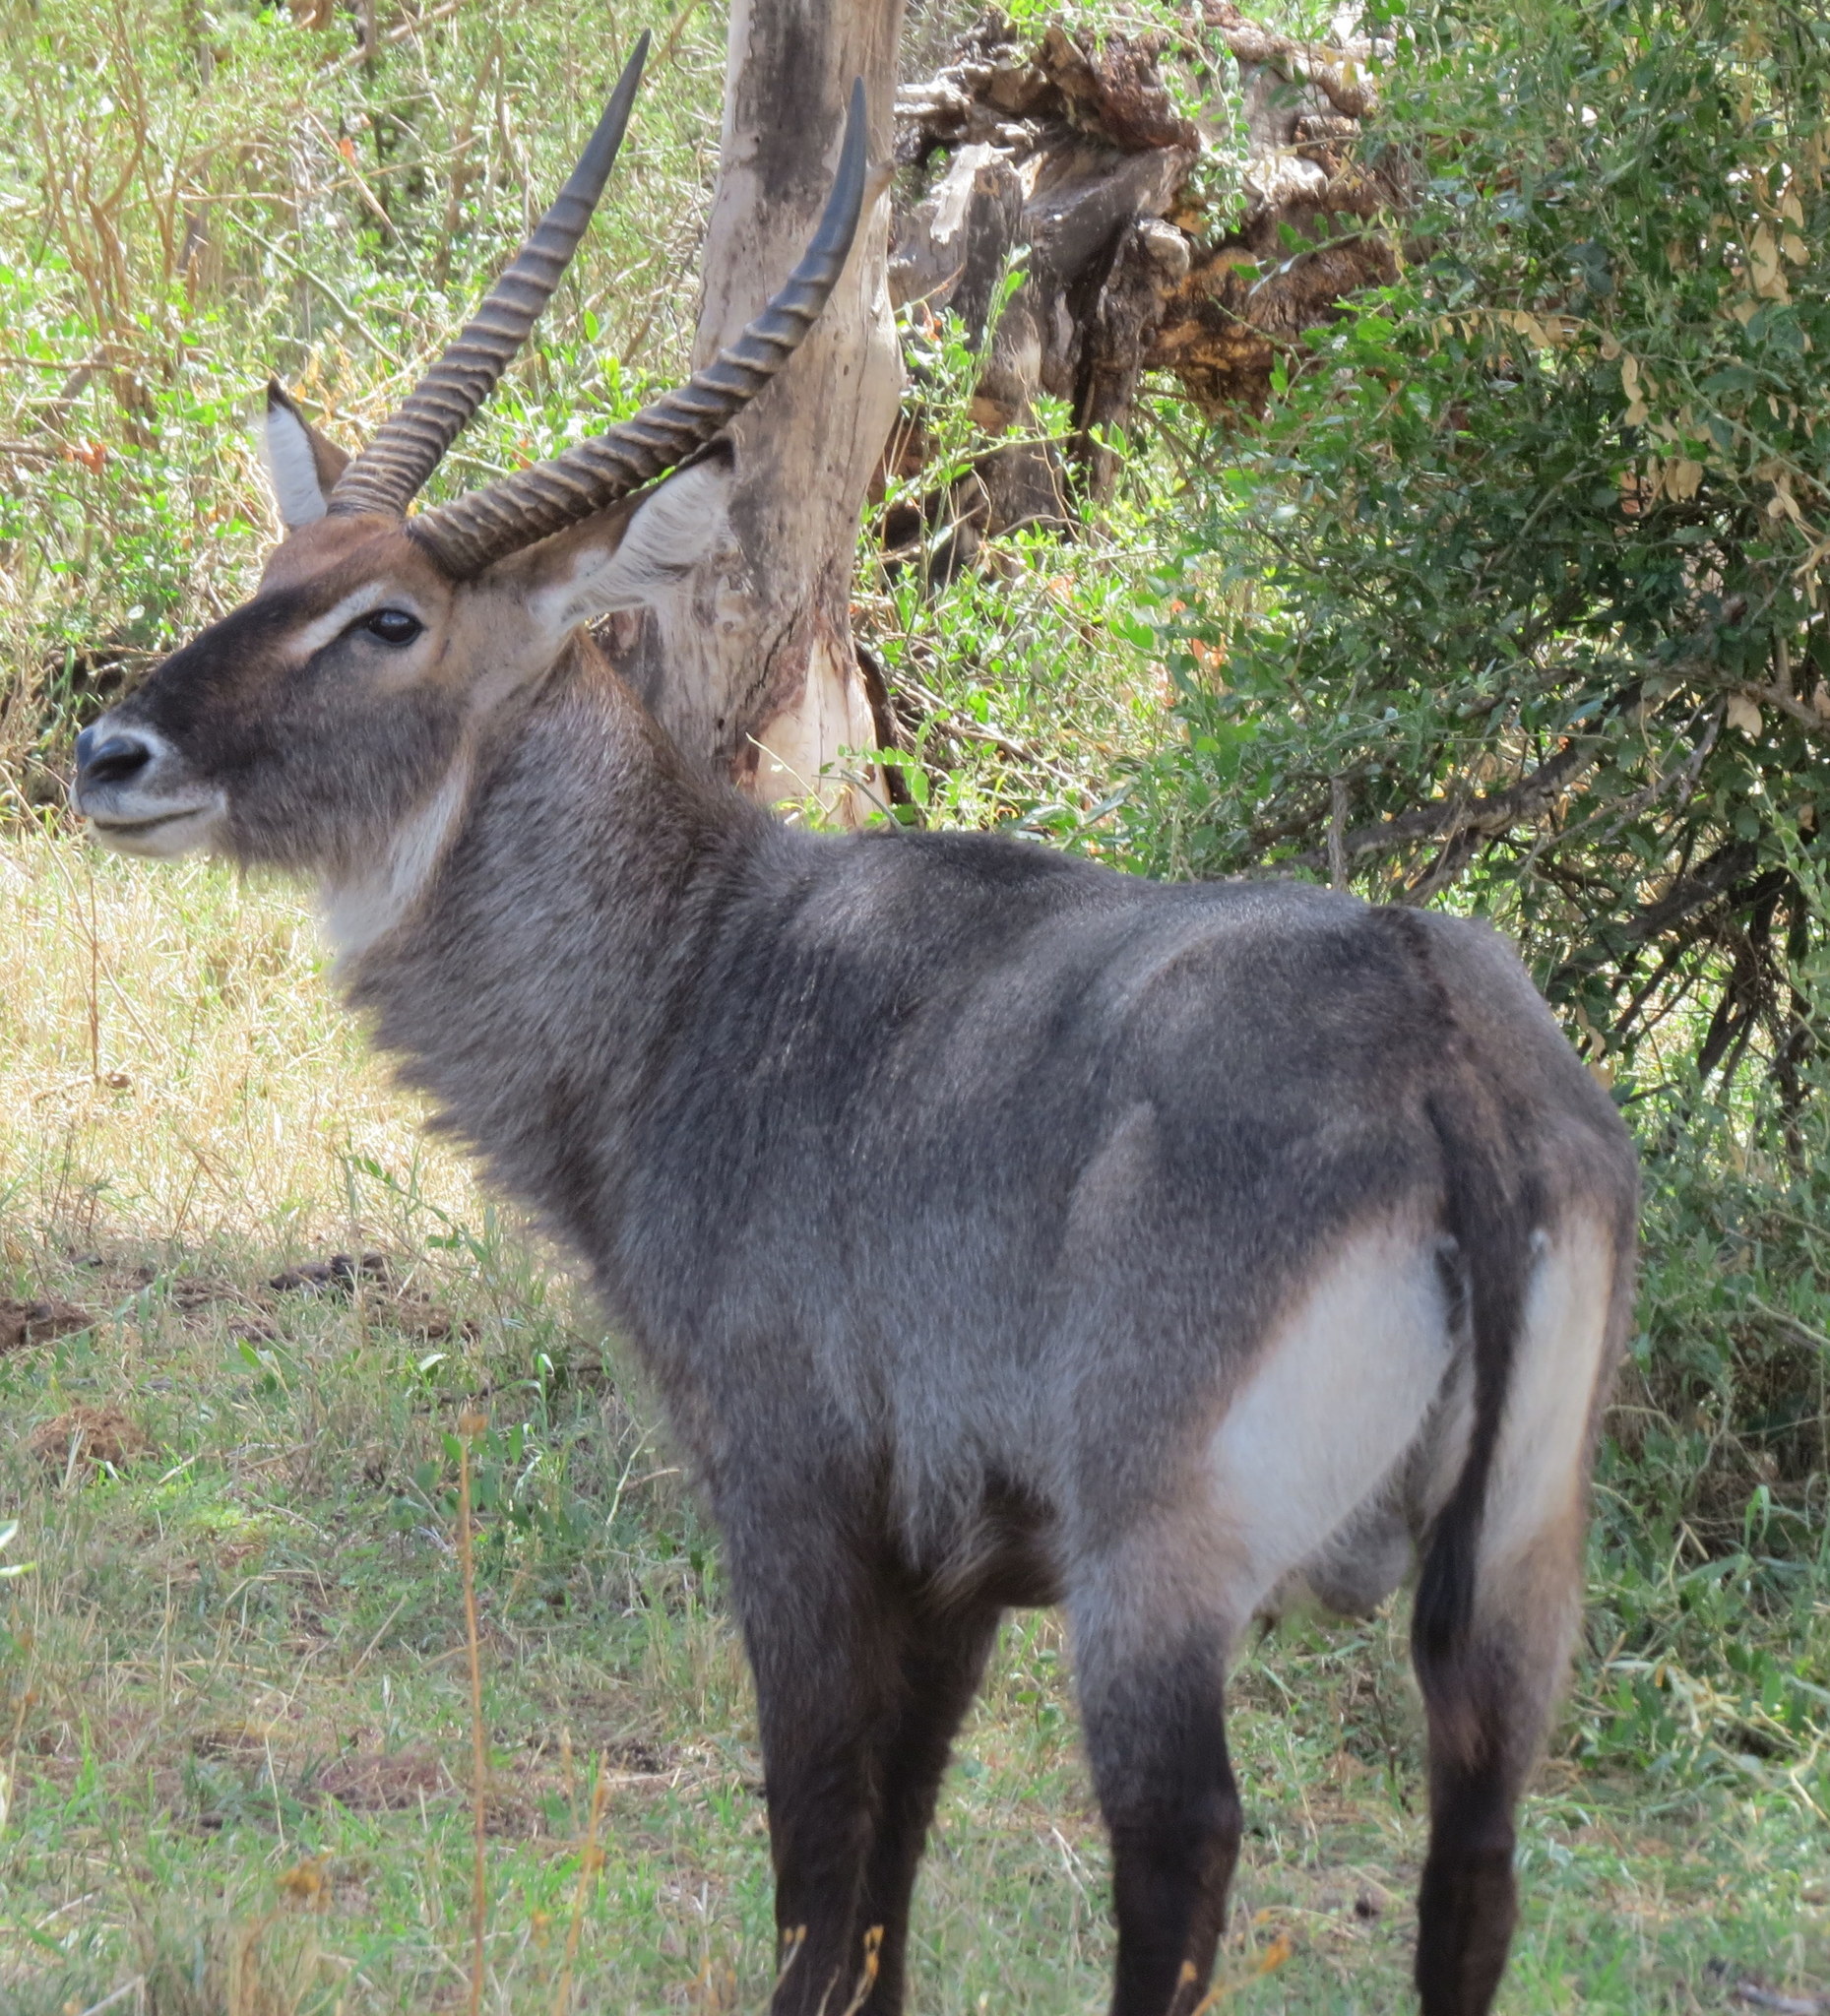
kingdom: Animalia
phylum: Chordata
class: Mammalia
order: Artiodactyla
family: Bovidae
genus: Kobus
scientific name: Kobus ellipsiprymnus
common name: Waterbuck
